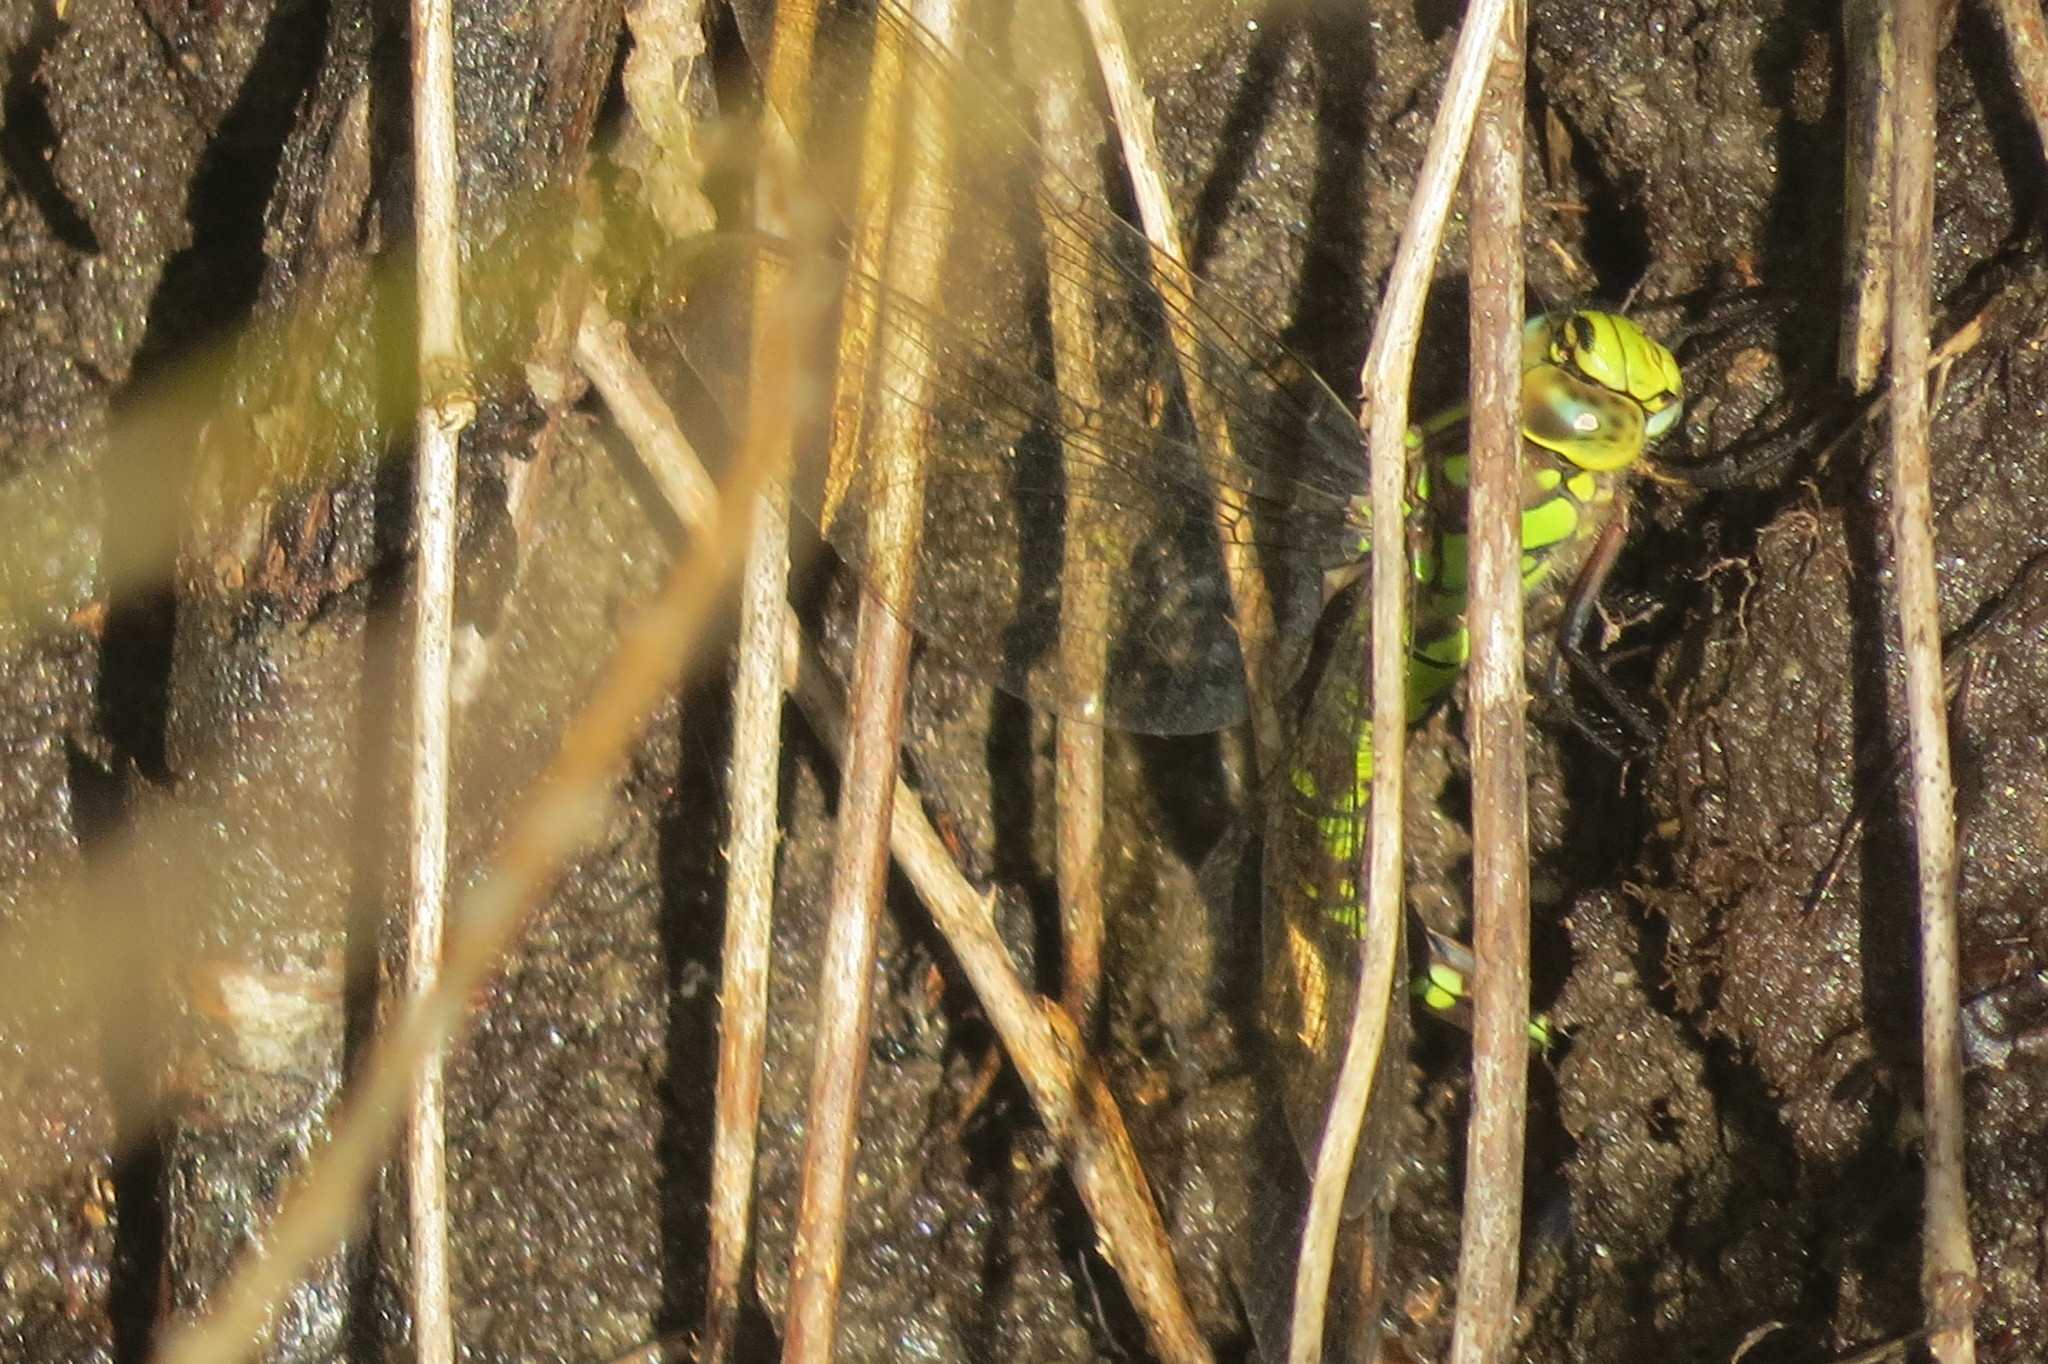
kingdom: Animalia
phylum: Arthropoda
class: Insecta
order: Odonata
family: Aeshnidae
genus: Aeshna
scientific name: Aeshna cyanea
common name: Southern hawker
